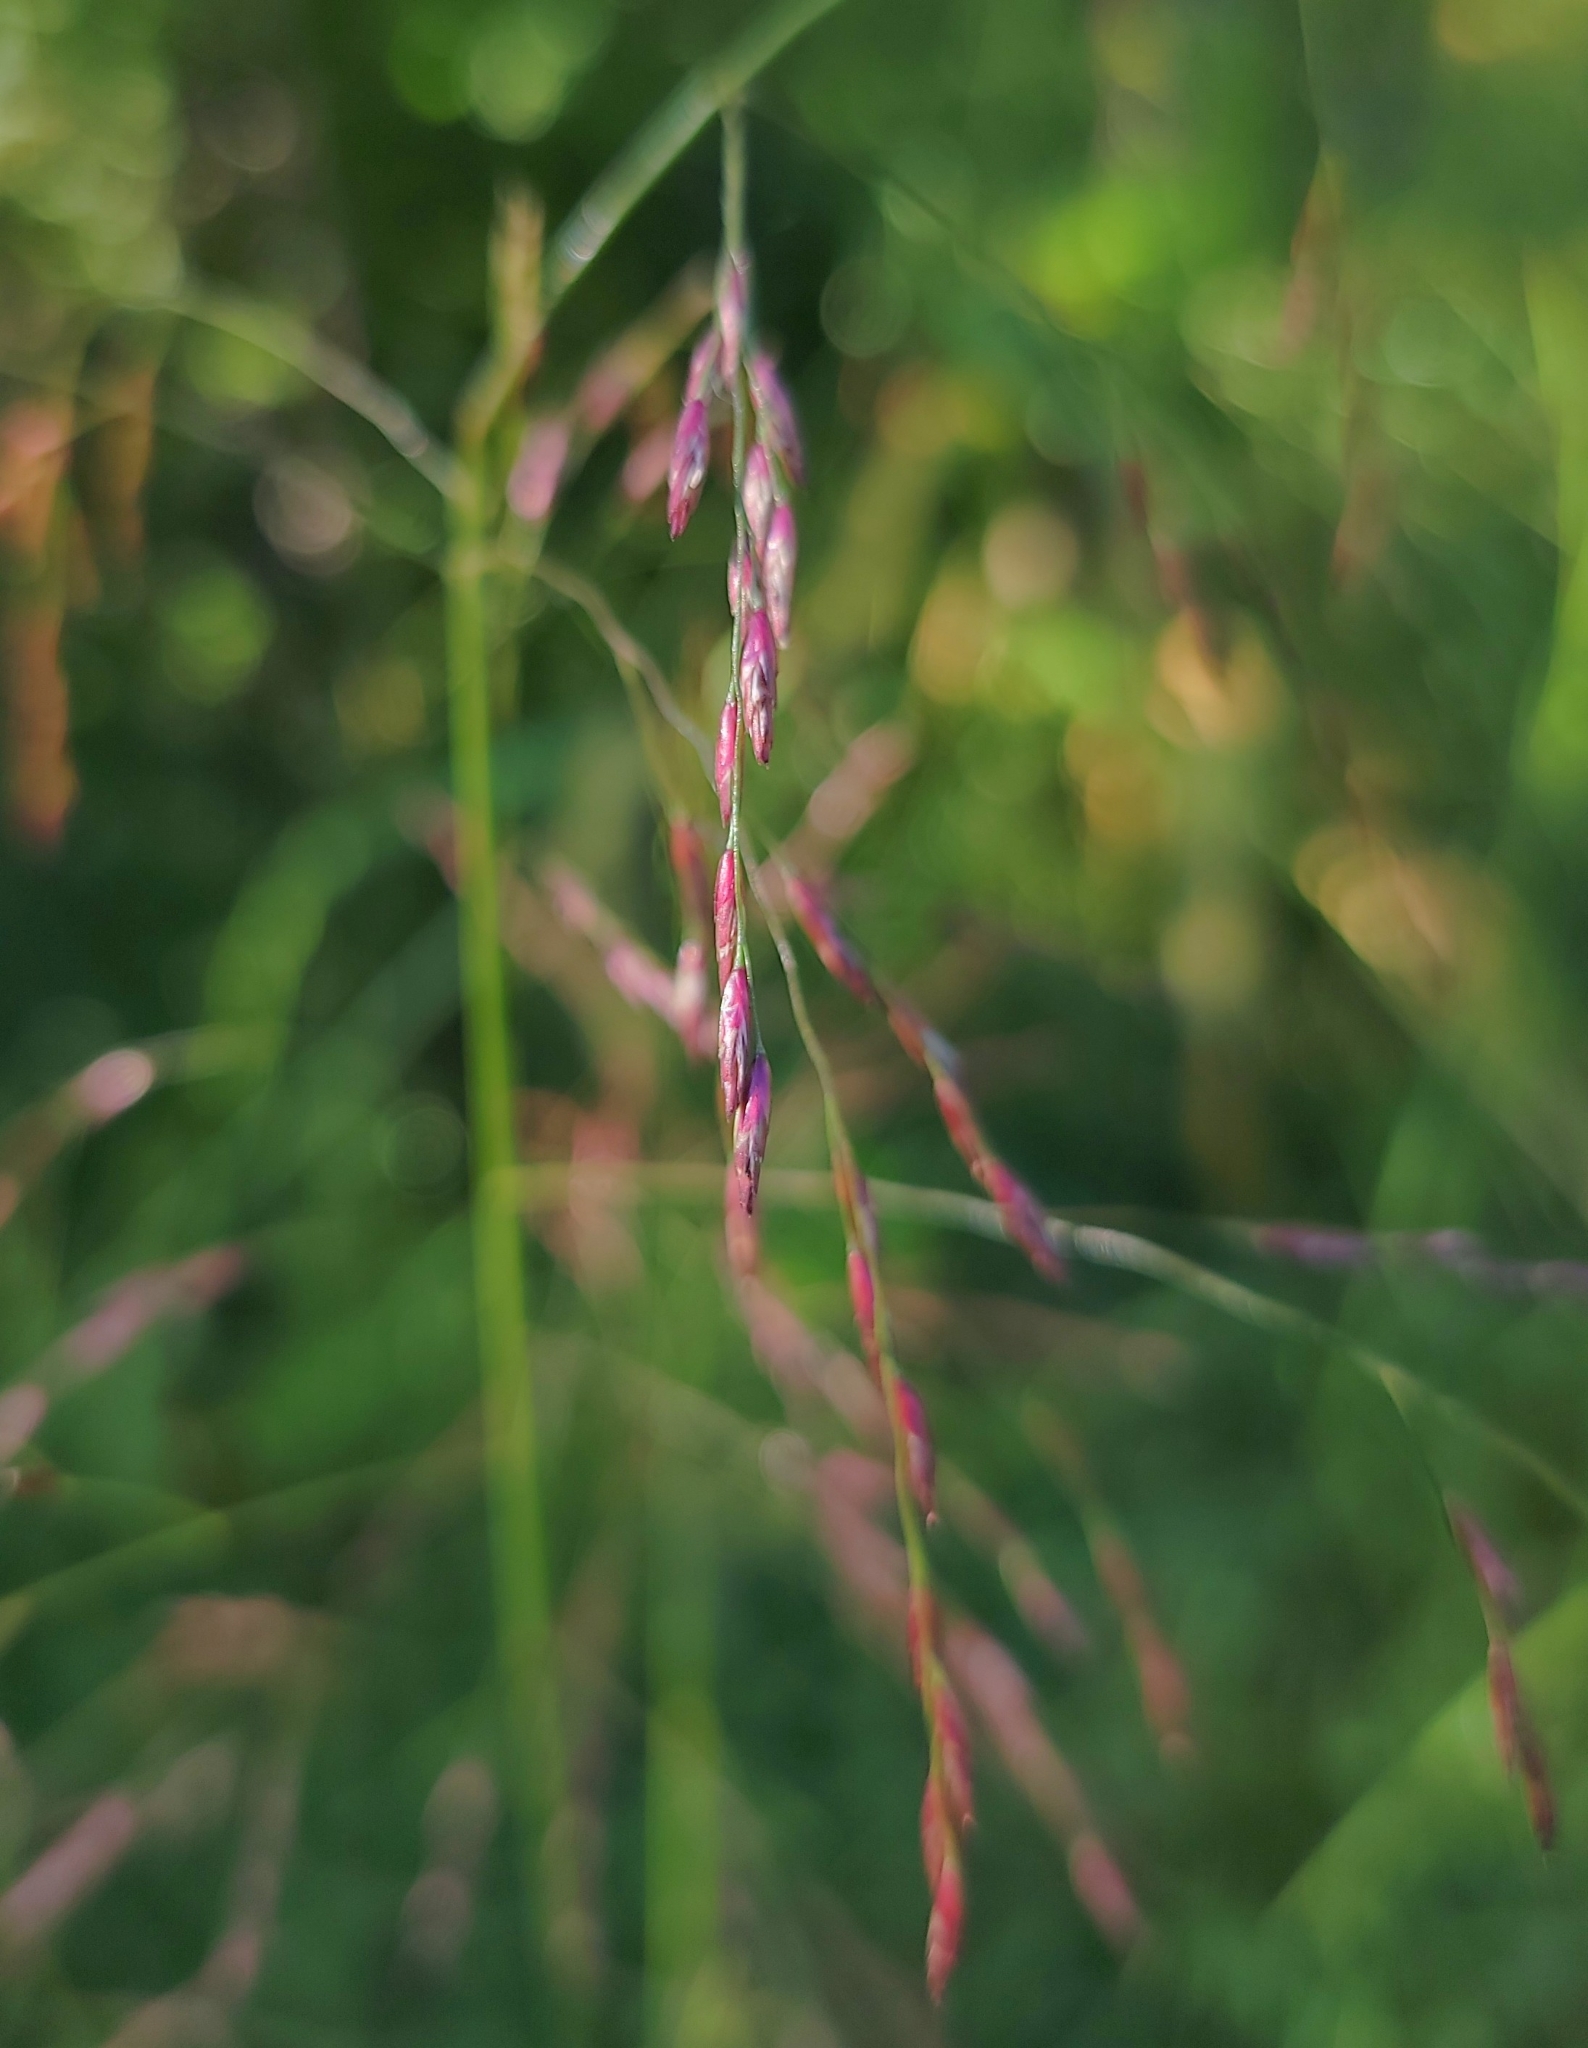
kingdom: Plantae
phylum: Tracheophyta
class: Liliopsida
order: Poales
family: Poaceae
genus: Tridens
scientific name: Tridens flavus
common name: Purpletop
